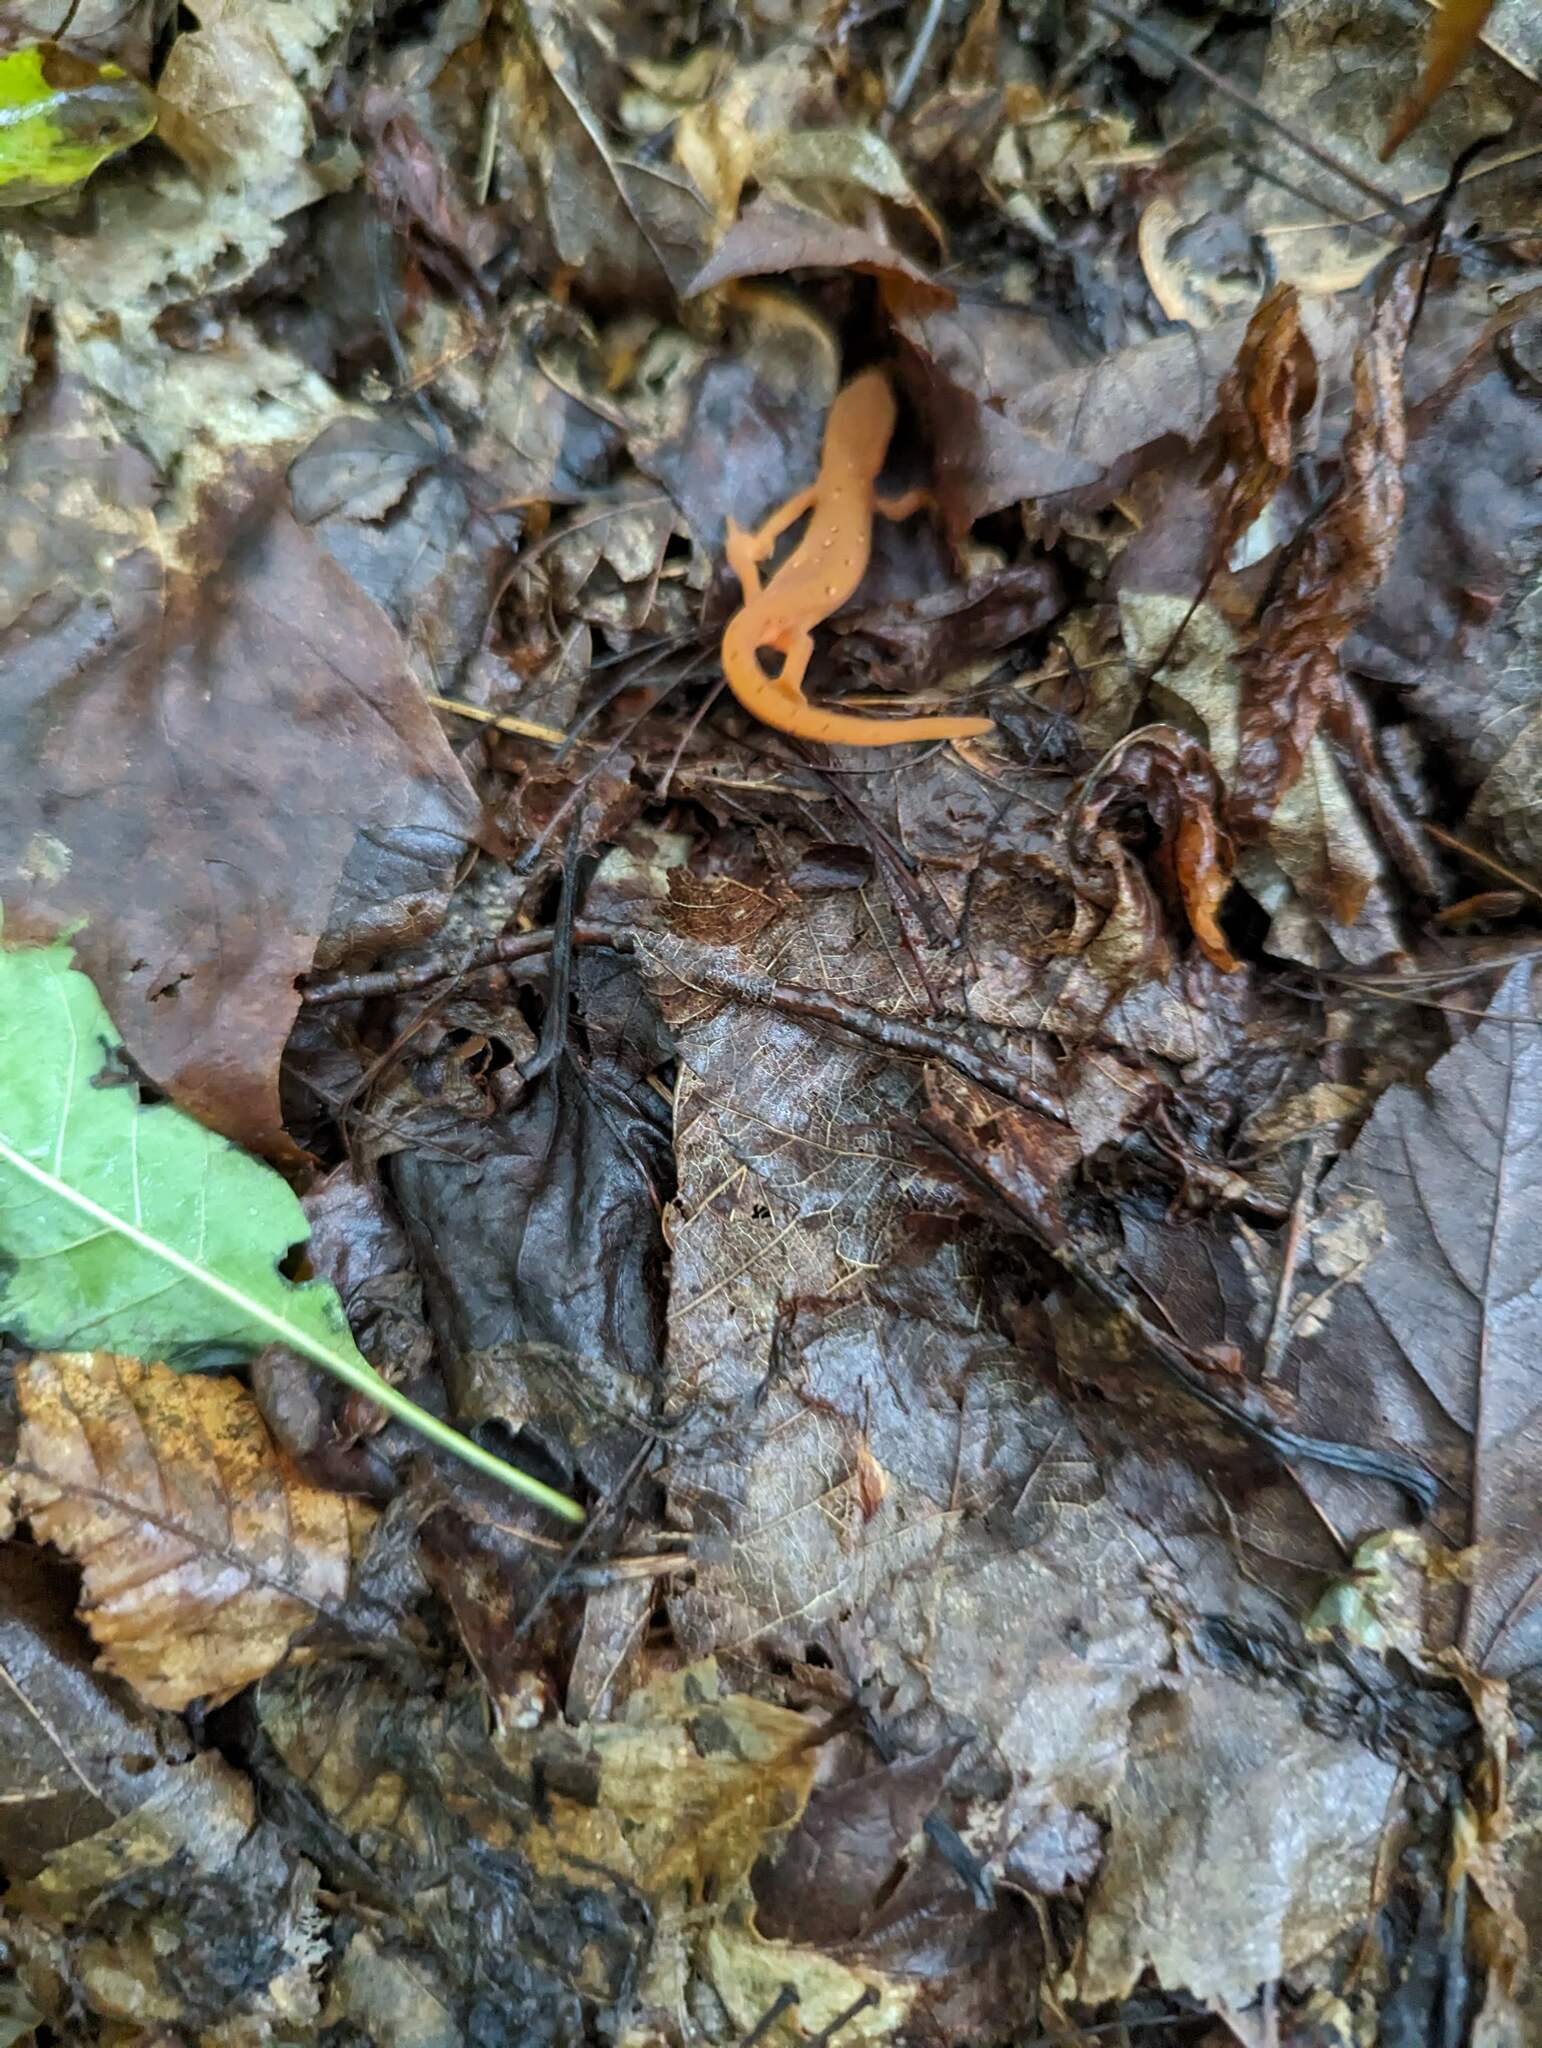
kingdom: Animalia
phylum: Chordata
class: Amphibia
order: Caudata
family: Salamandridae
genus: Notophthalmus
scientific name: Notophthalmus viridescens
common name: Eastern newt
